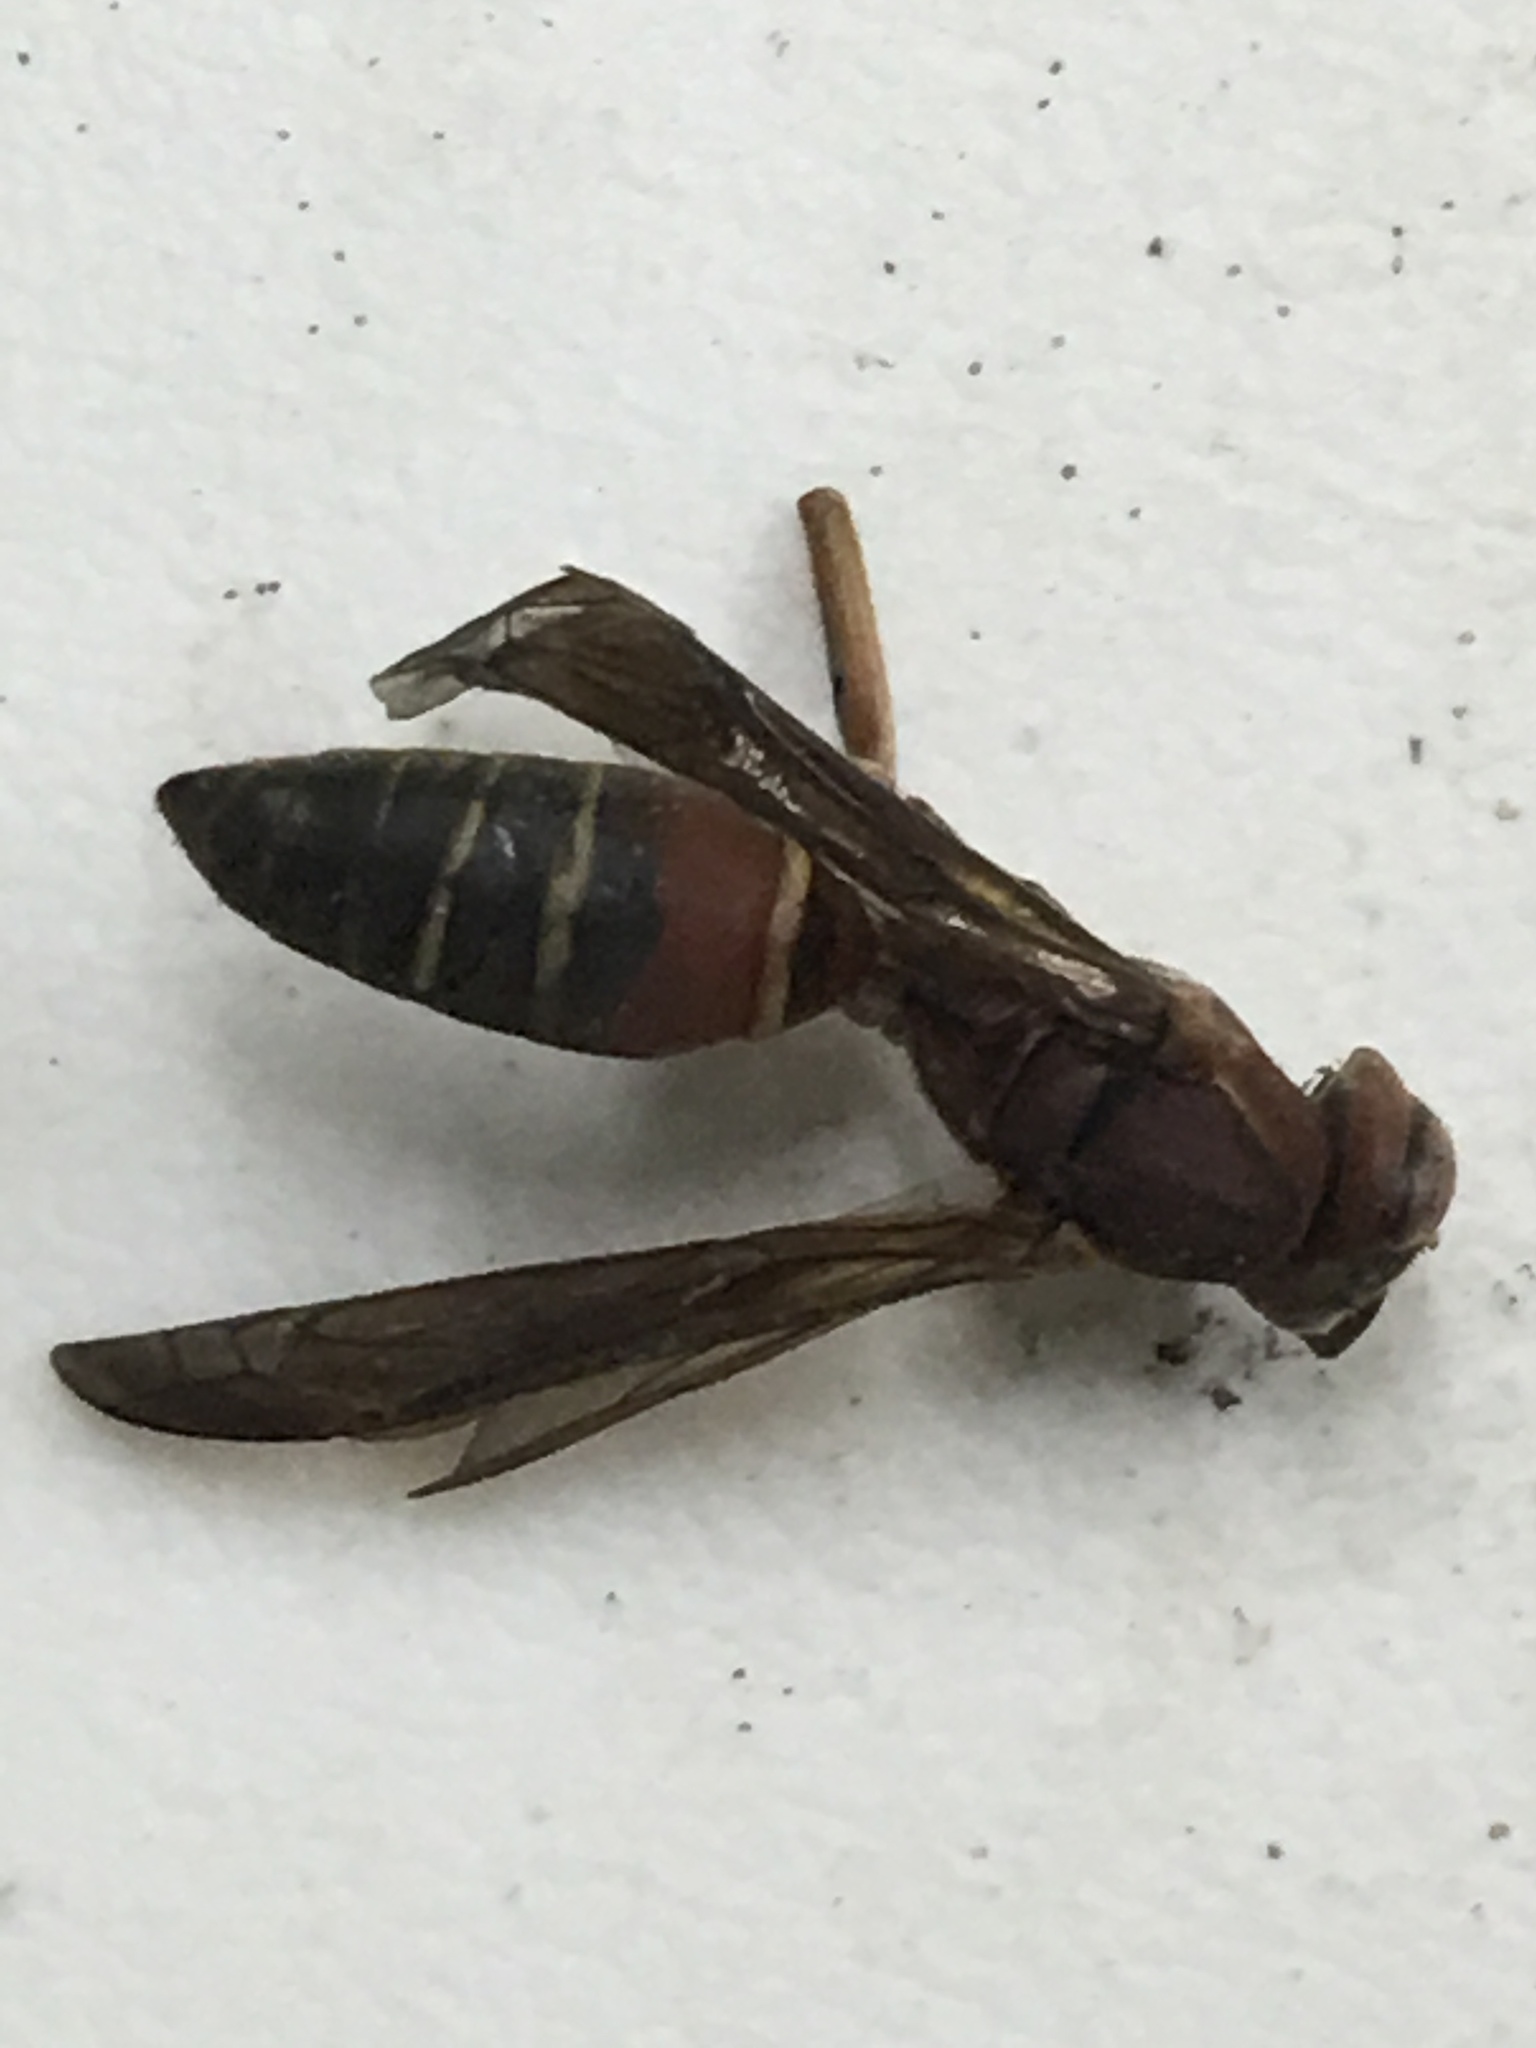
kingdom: Animalia
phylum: Arthropoda
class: Insecta
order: Hymenoptera
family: Eumenidae
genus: Polistes
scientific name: Polistes fuscatus
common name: Dark paper wasp
